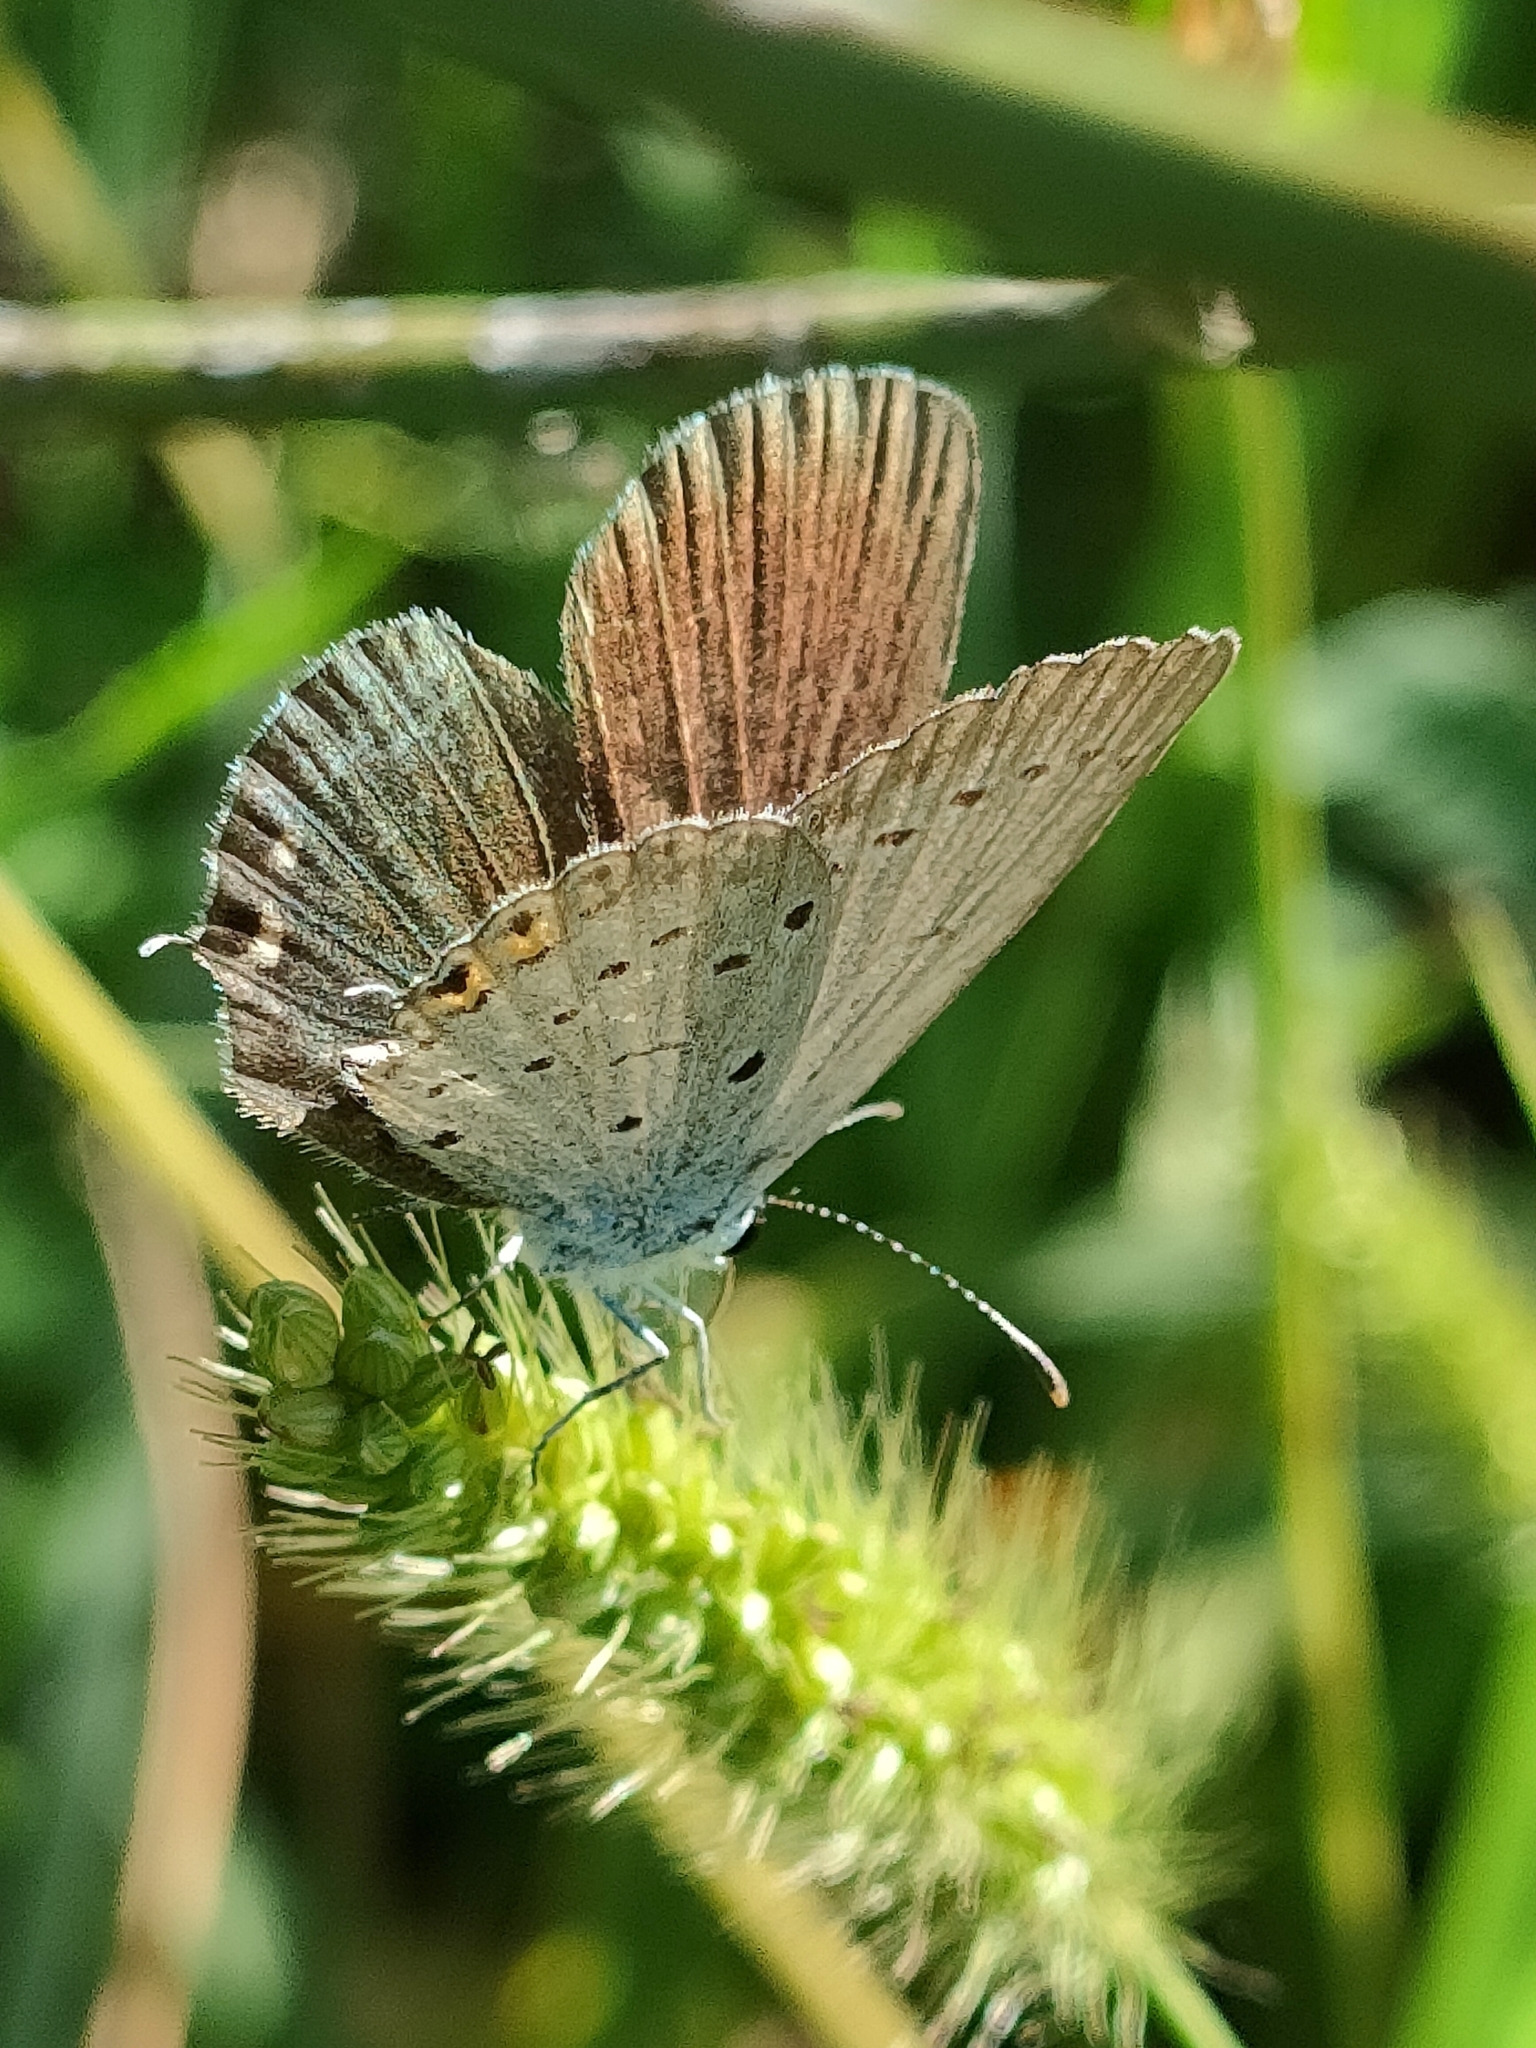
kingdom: Animalia
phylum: Arthropoda
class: Insecta
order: Lepidoptera
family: Lycaenidae
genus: Elkalyce
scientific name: Elkalyce argiades
